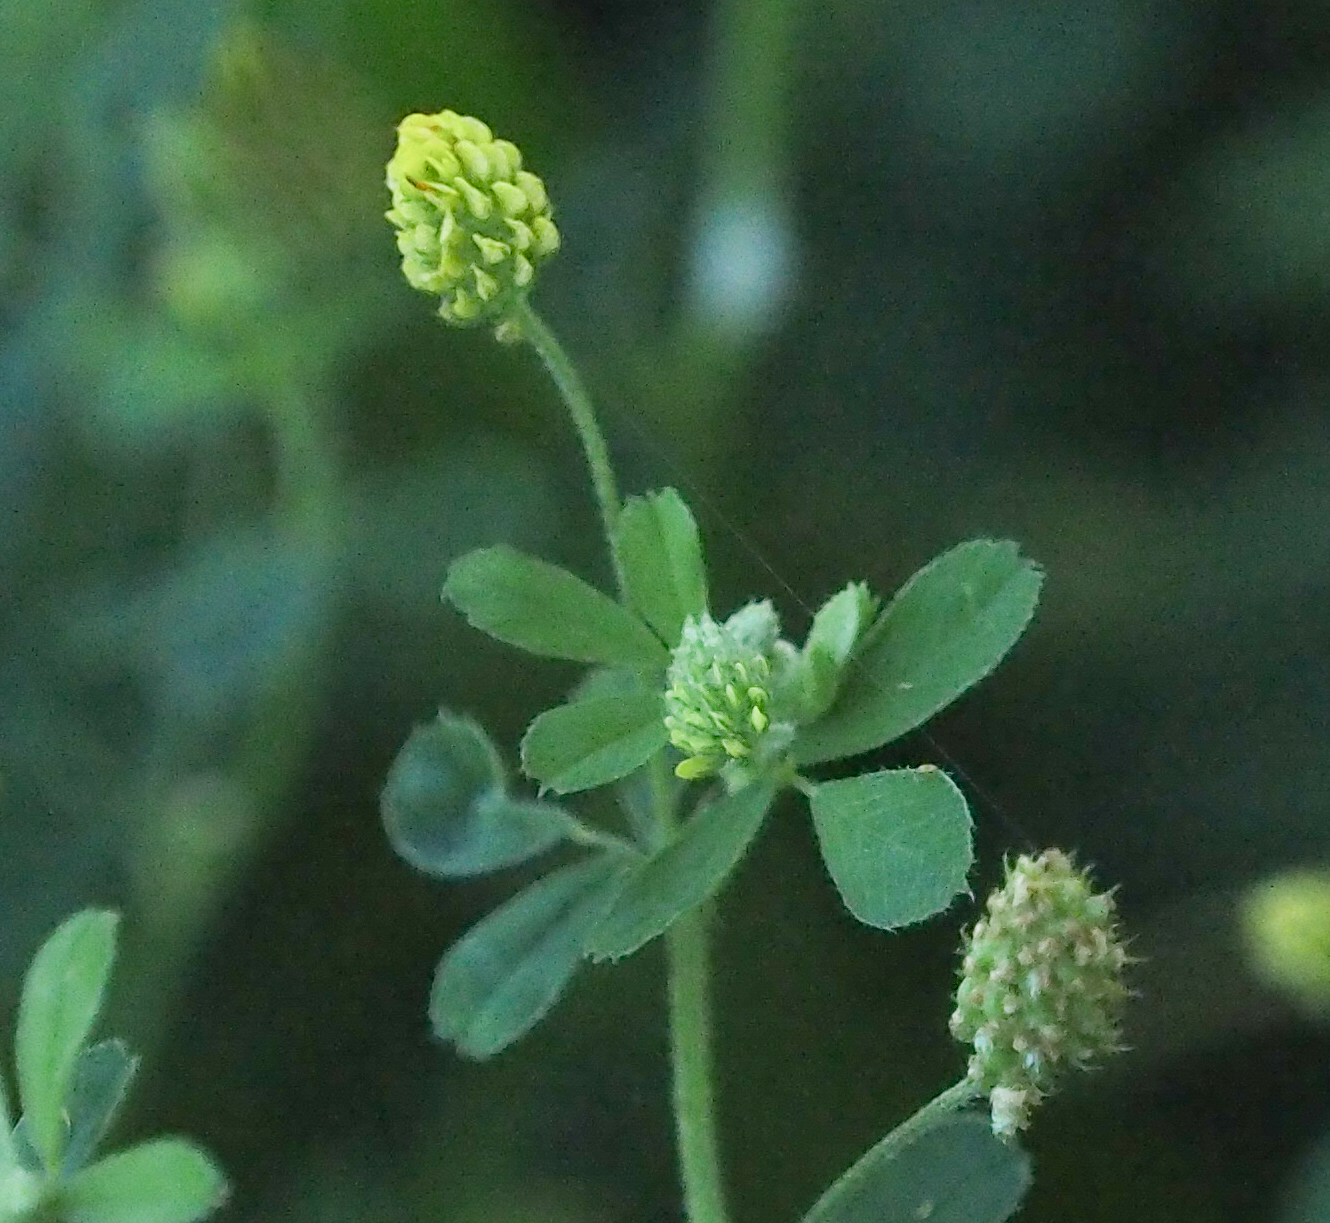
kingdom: Plantae
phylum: Tracheophyta
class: Magnoliopsida
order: Fabales
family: Fabaceae
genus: Medicago
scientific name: Medicago lupulina
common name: Black medick
